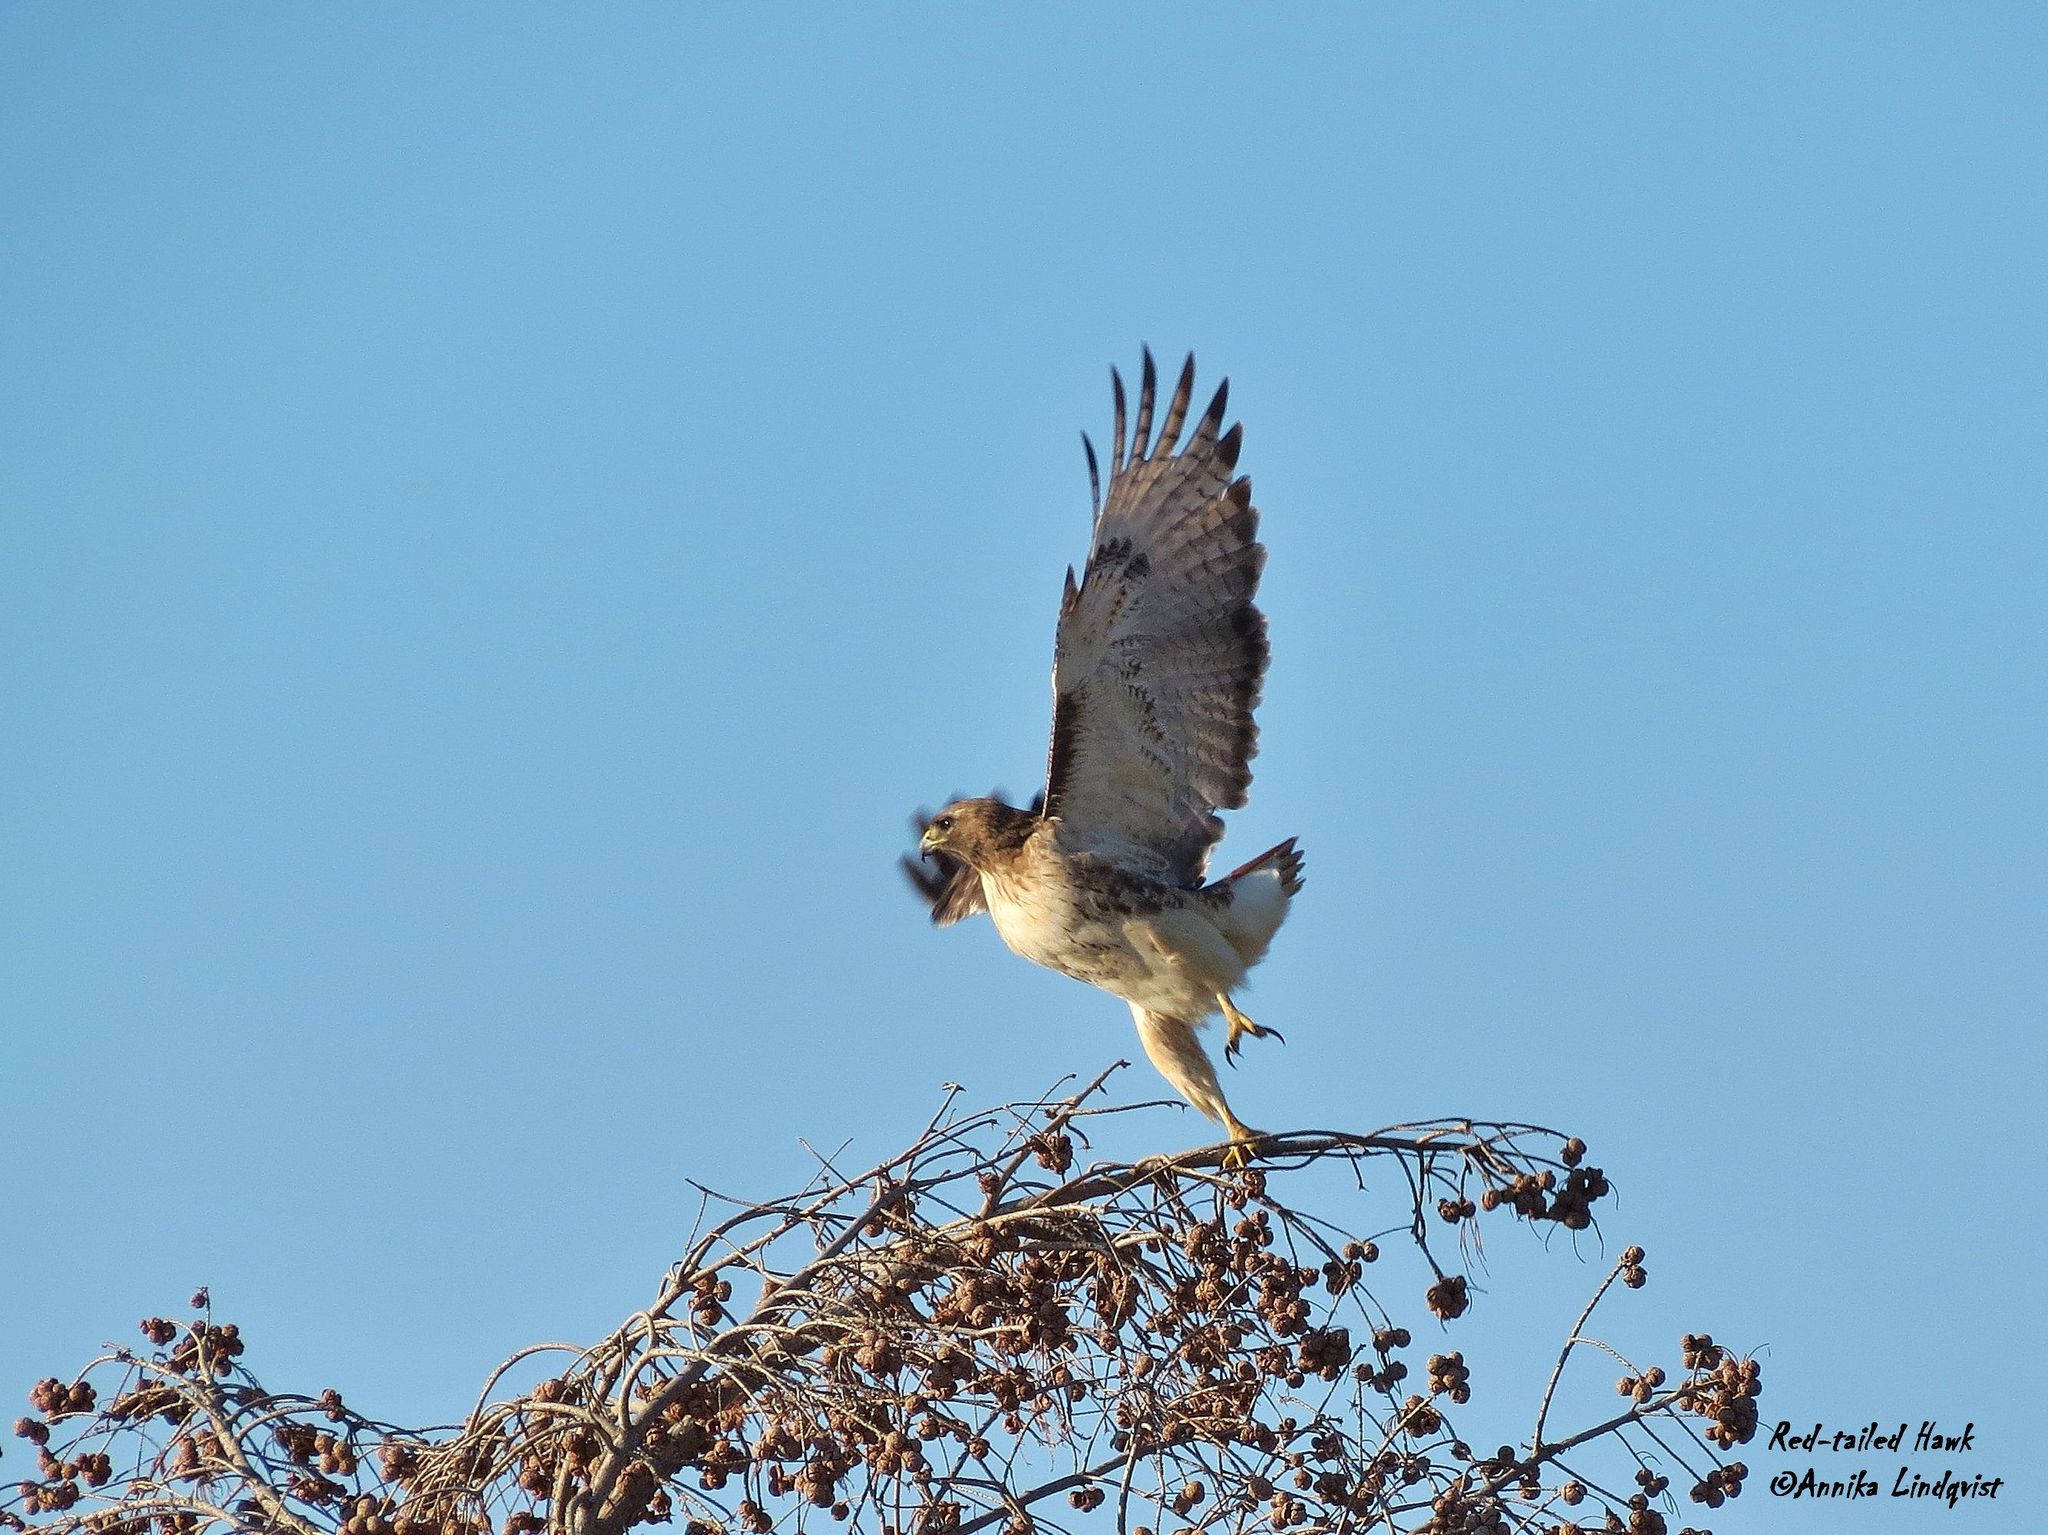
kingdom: Animalia
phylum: Chordata
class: Aves
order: Accipitriformes
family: Accipitridae
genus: Buteo
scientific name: Buteo jamaicensis
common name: Red-tailed hawk
